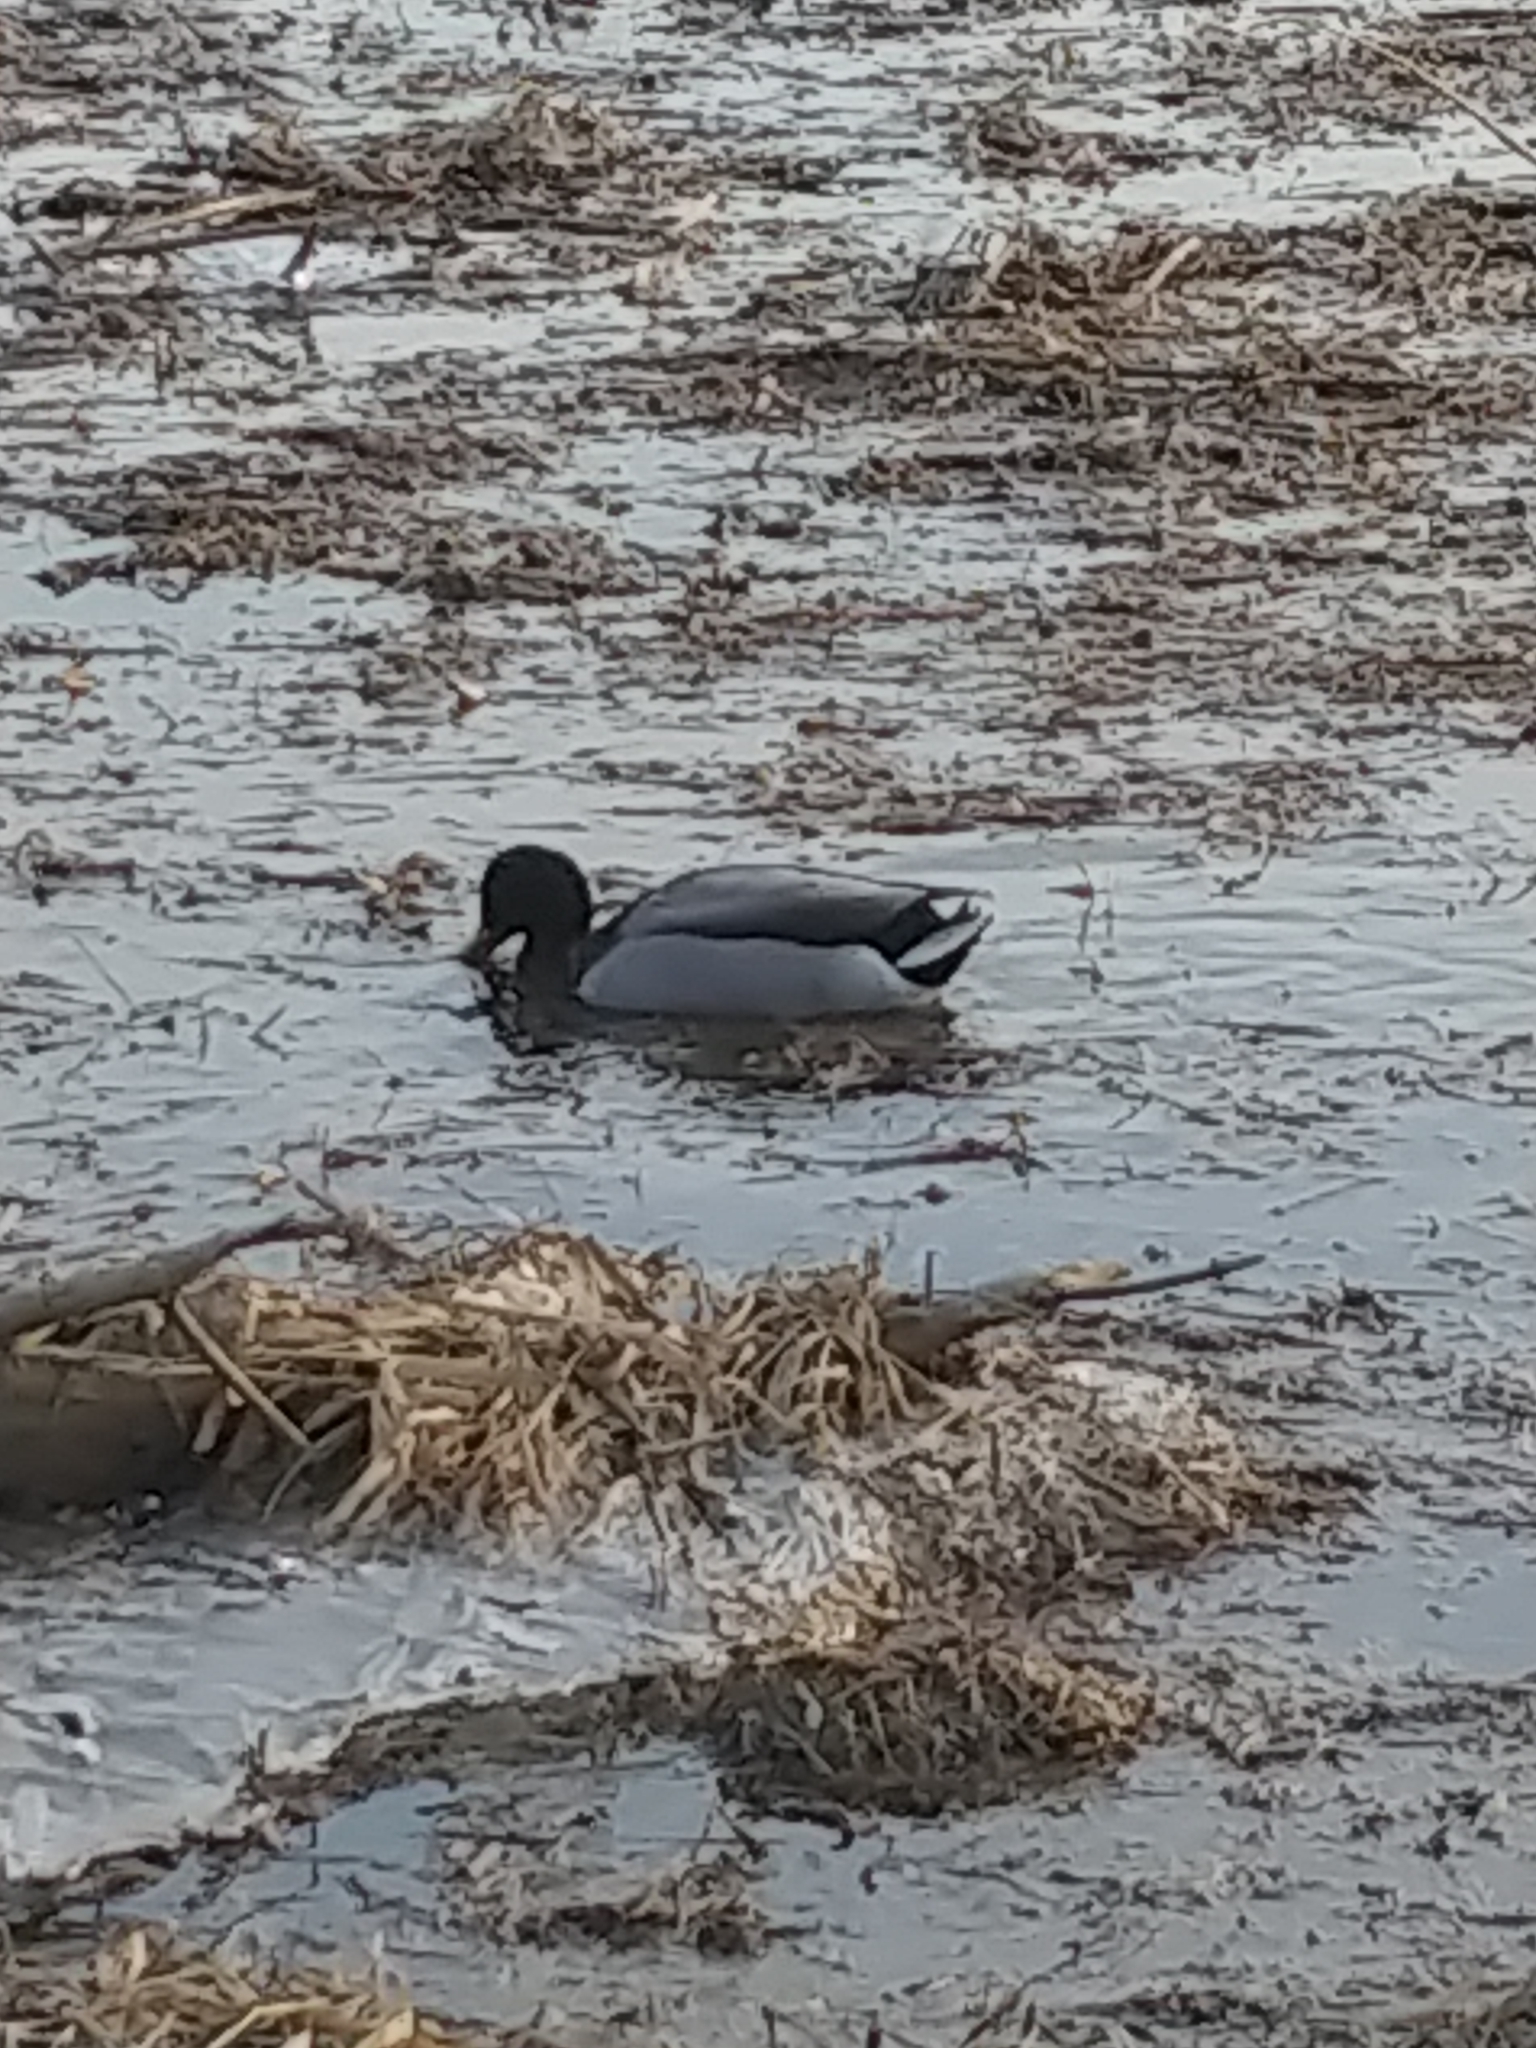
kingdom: Animalia
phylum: Chordata
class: Aves
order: Anseriformes
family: Anatidae
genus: Anas
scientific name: Anas platyrhynchos
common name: Mallard
